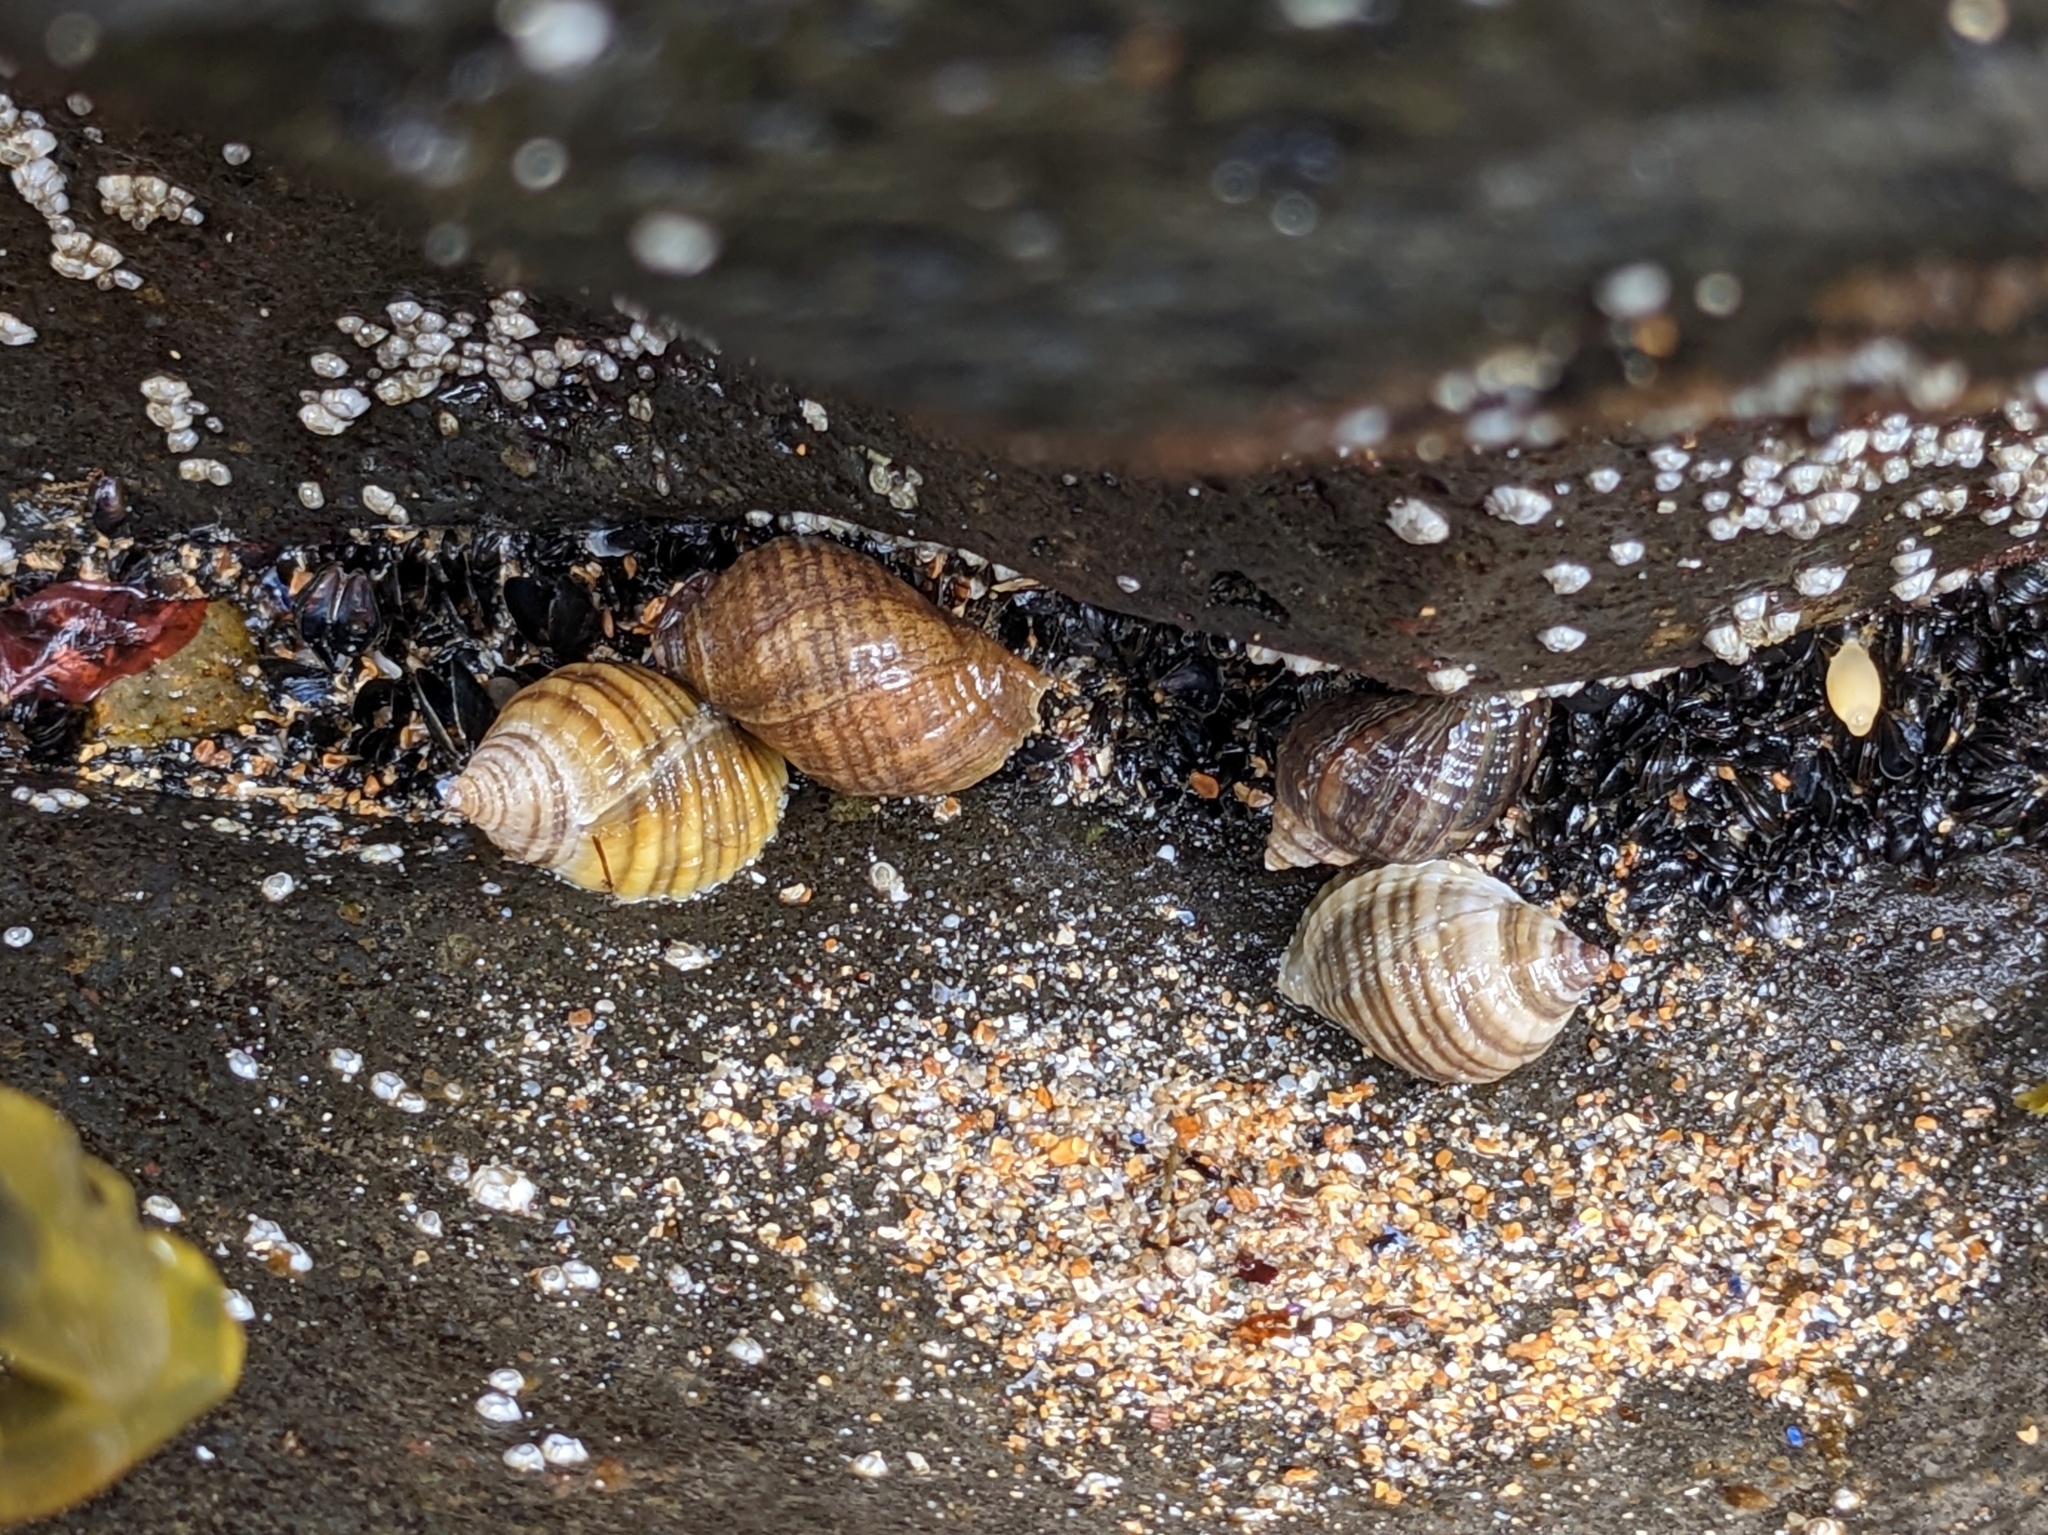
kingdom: Animalia
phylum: Mollusca
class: Gastropoda
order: Neogastropoda
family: Muricidae
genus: Nucella
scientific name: Nucella lapillus
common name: Dog whelk
